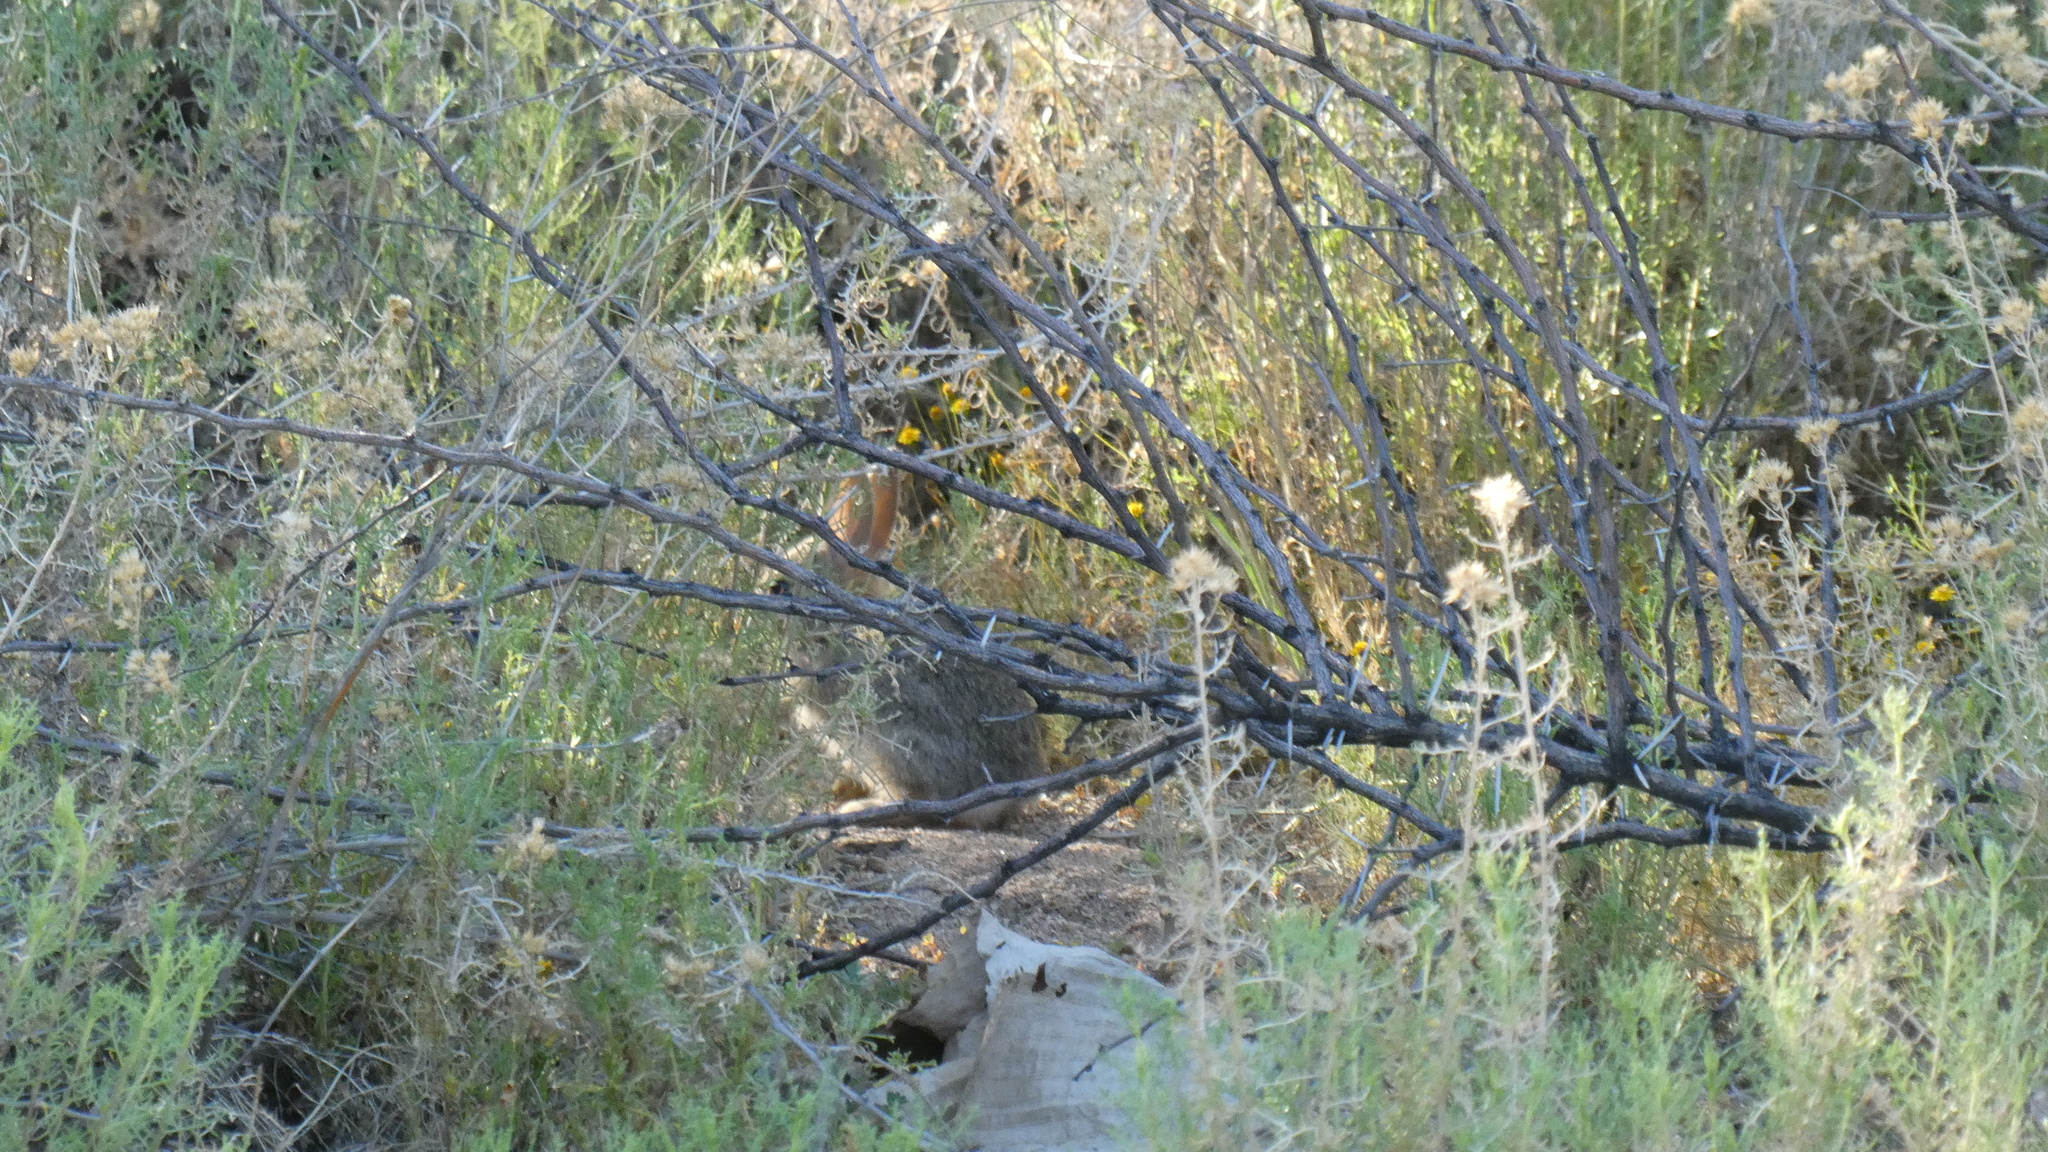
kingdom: Animalia
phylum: Chordata
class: Mammalia
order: Lagomorpha
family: Leporidae
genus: Sylvilagus
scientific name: Sylvilagus audubonii
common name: Desert cottontail
